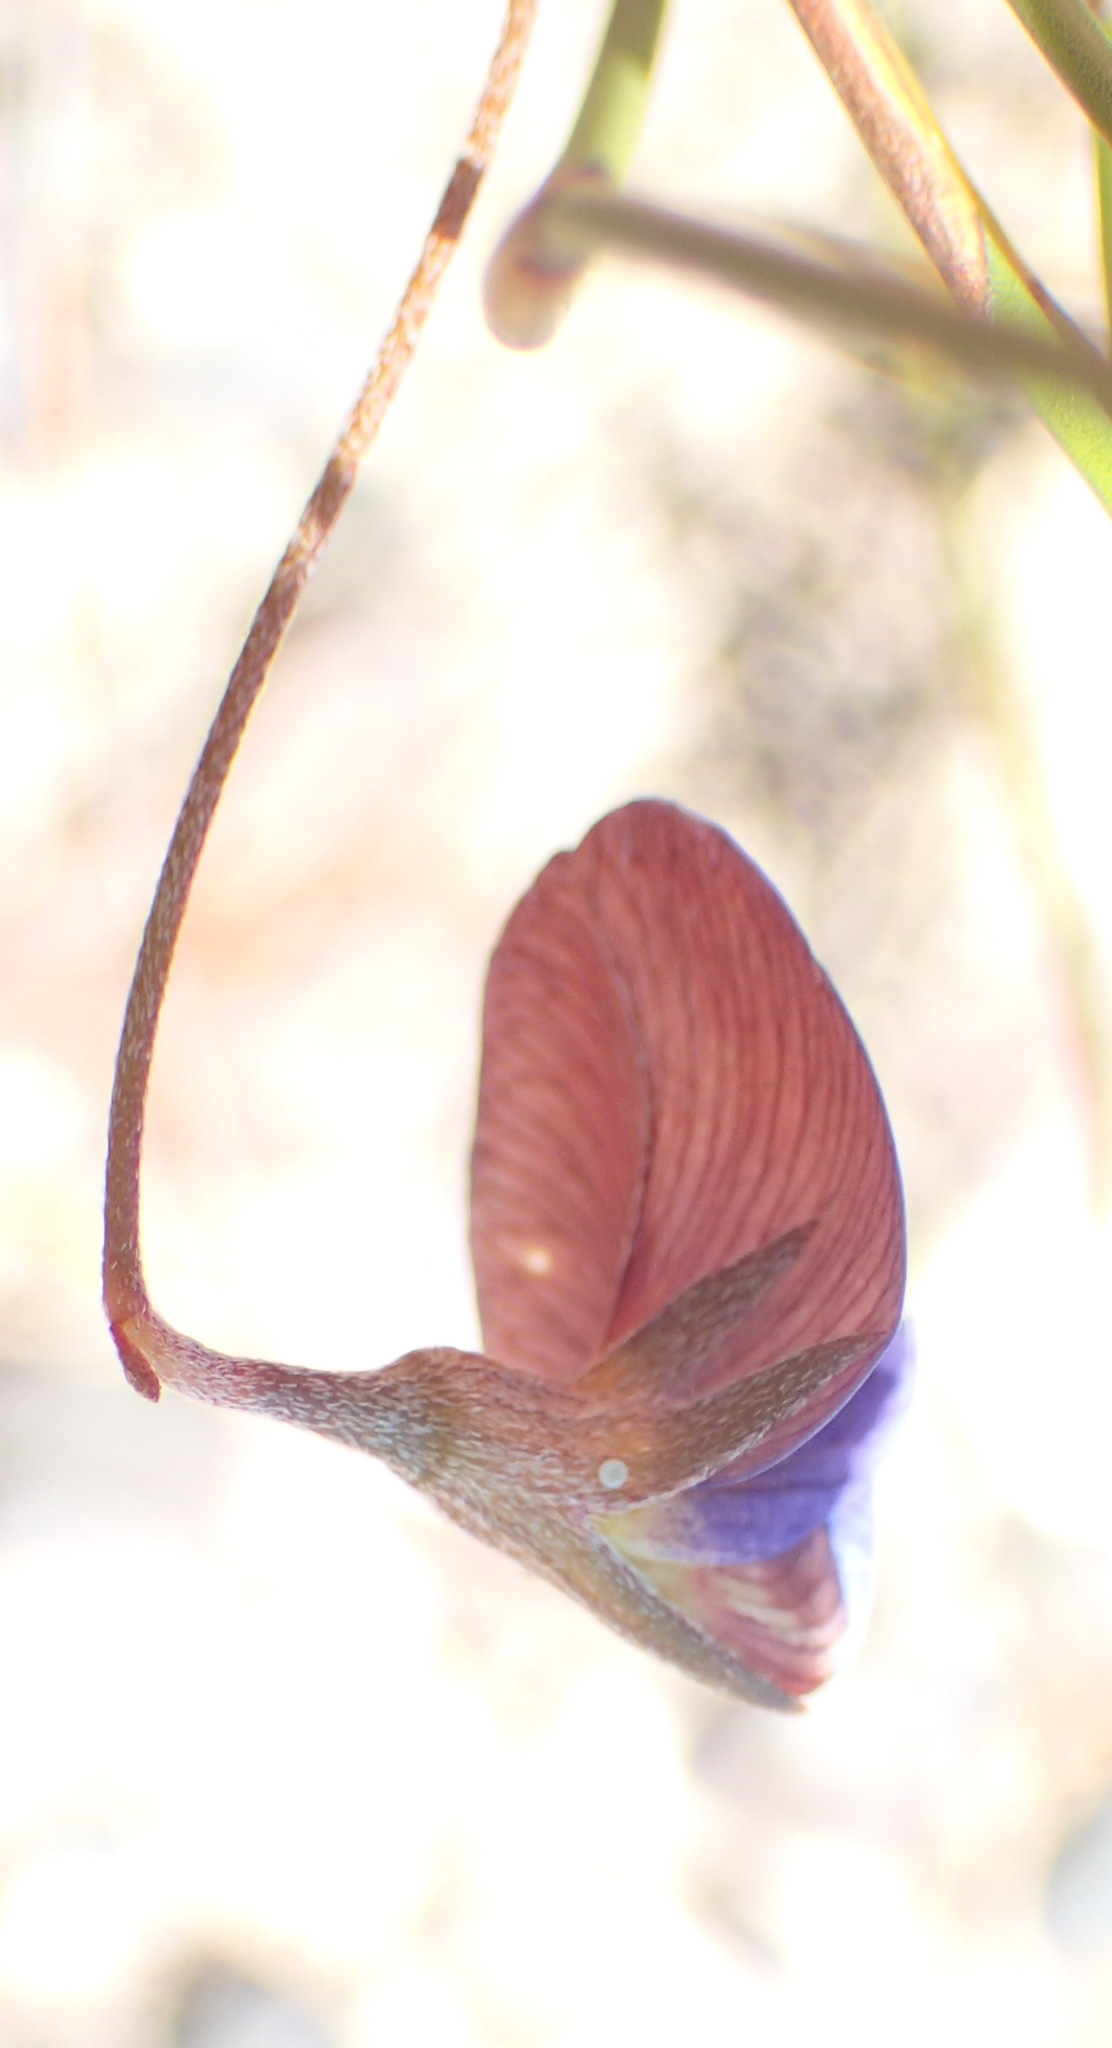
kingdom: Plantae
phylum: Tracheophyta
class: Magnoliopsida
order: Fabales
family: Fabaceae
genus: Lotononis
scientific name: Lotononis filiformis
